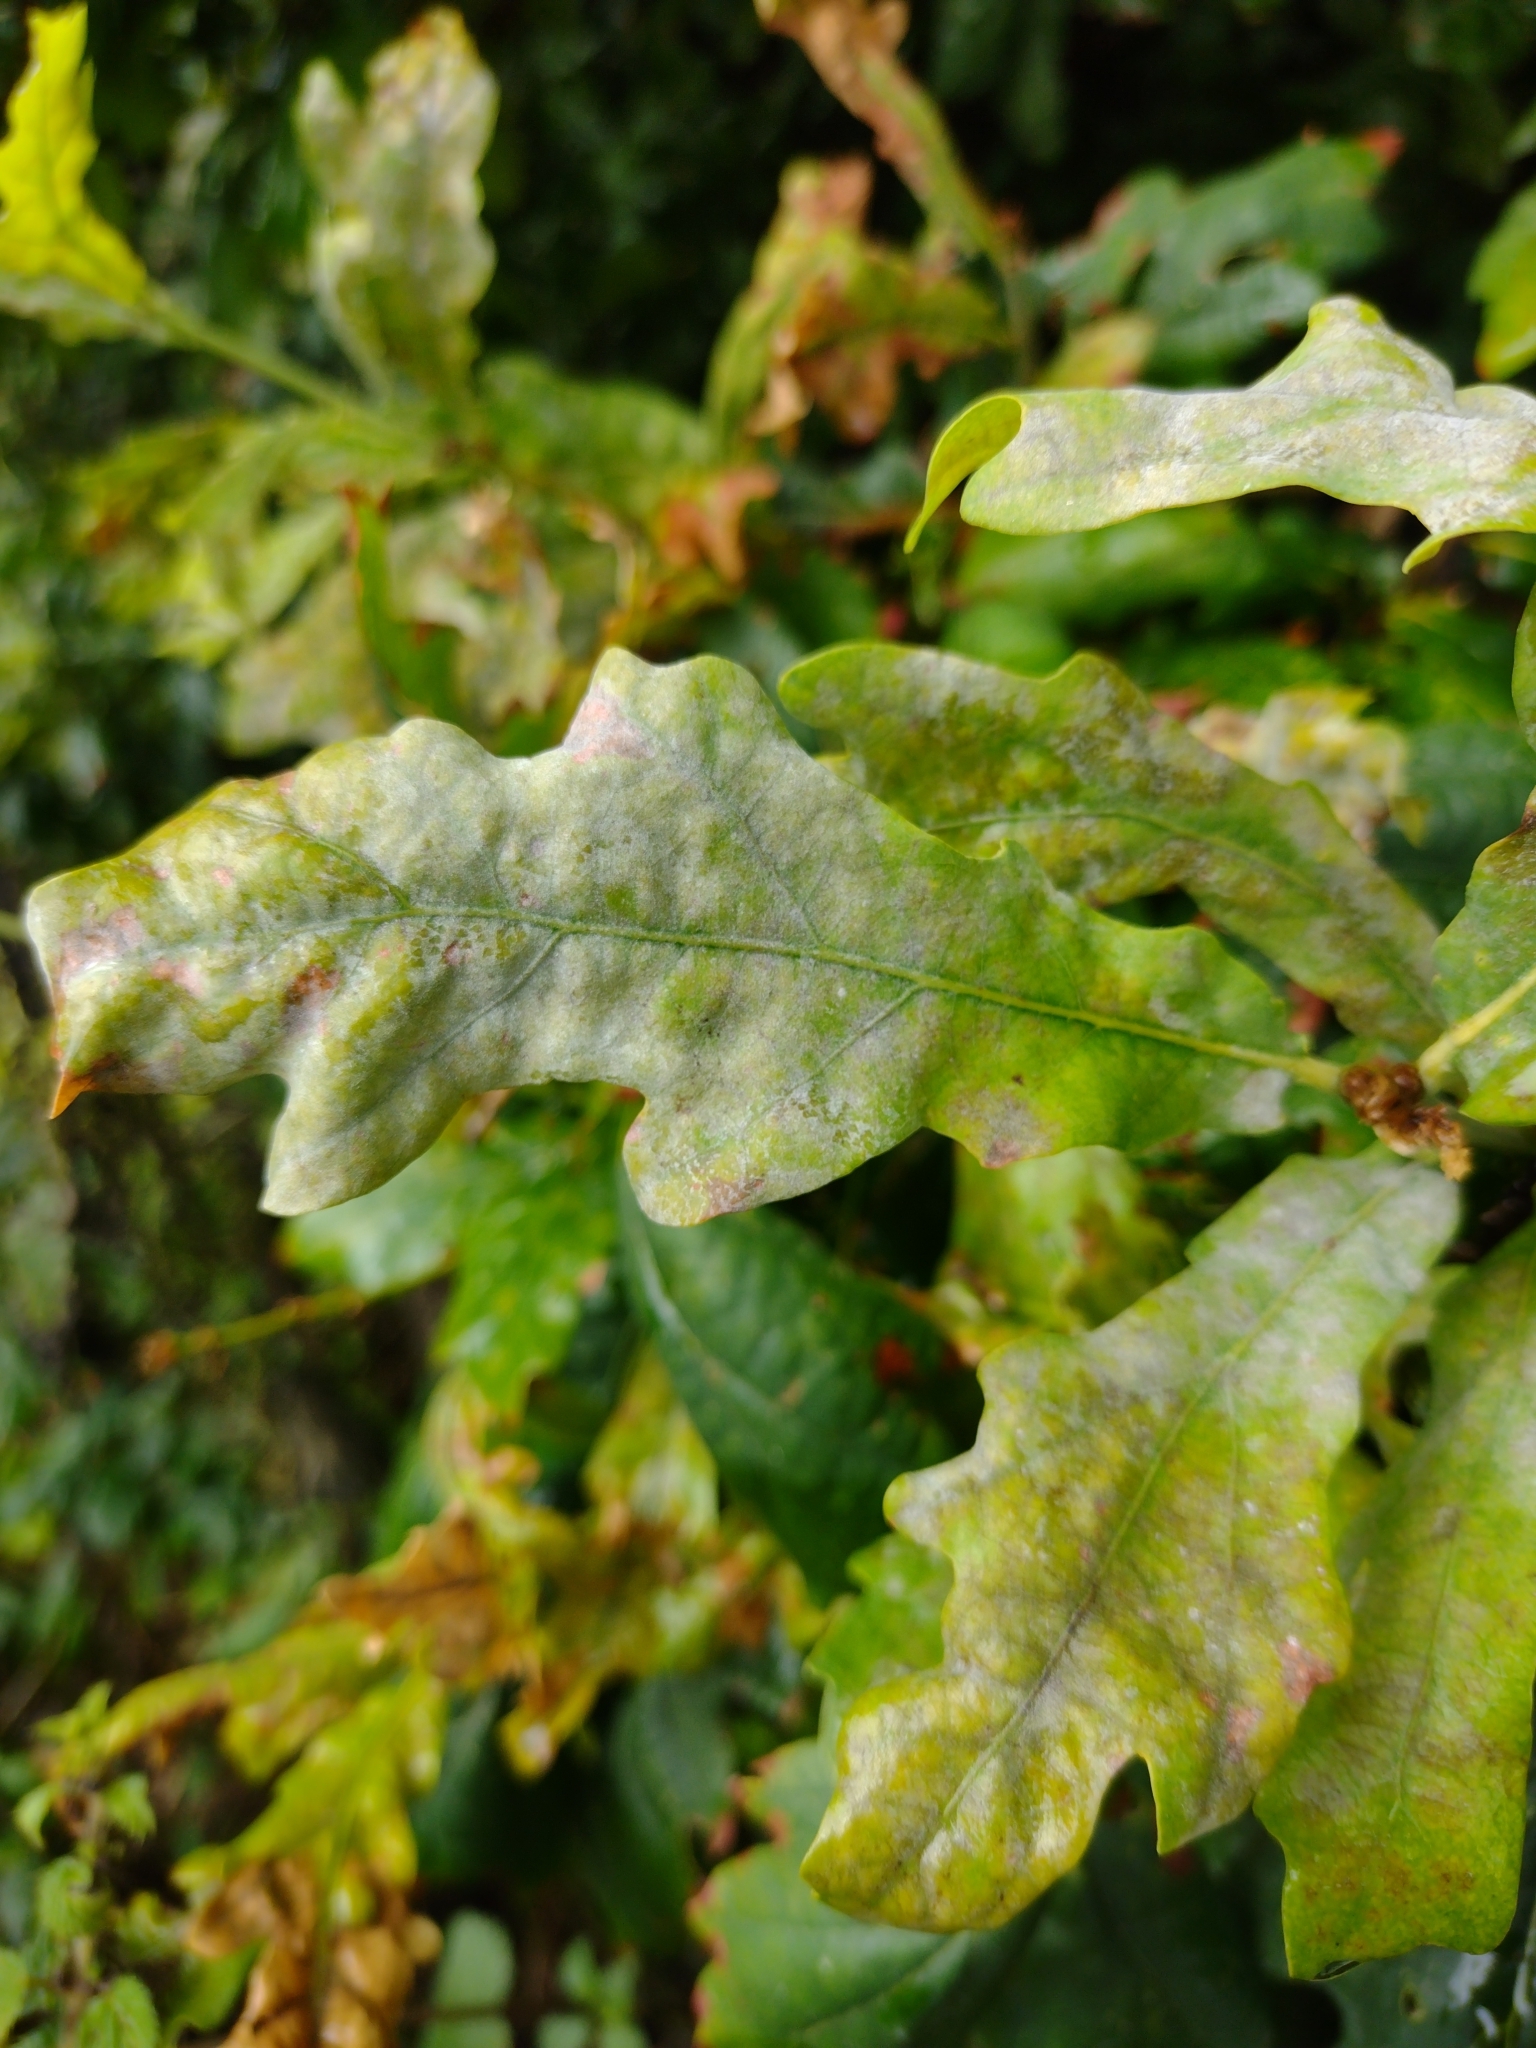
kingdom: Fungi
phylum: Ascomycota
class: Leotiomycetes
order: Helotiales
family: Erysiphaceae
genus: Erysiphe
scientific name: Erysiphe alphitoides
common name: Oak mildew
